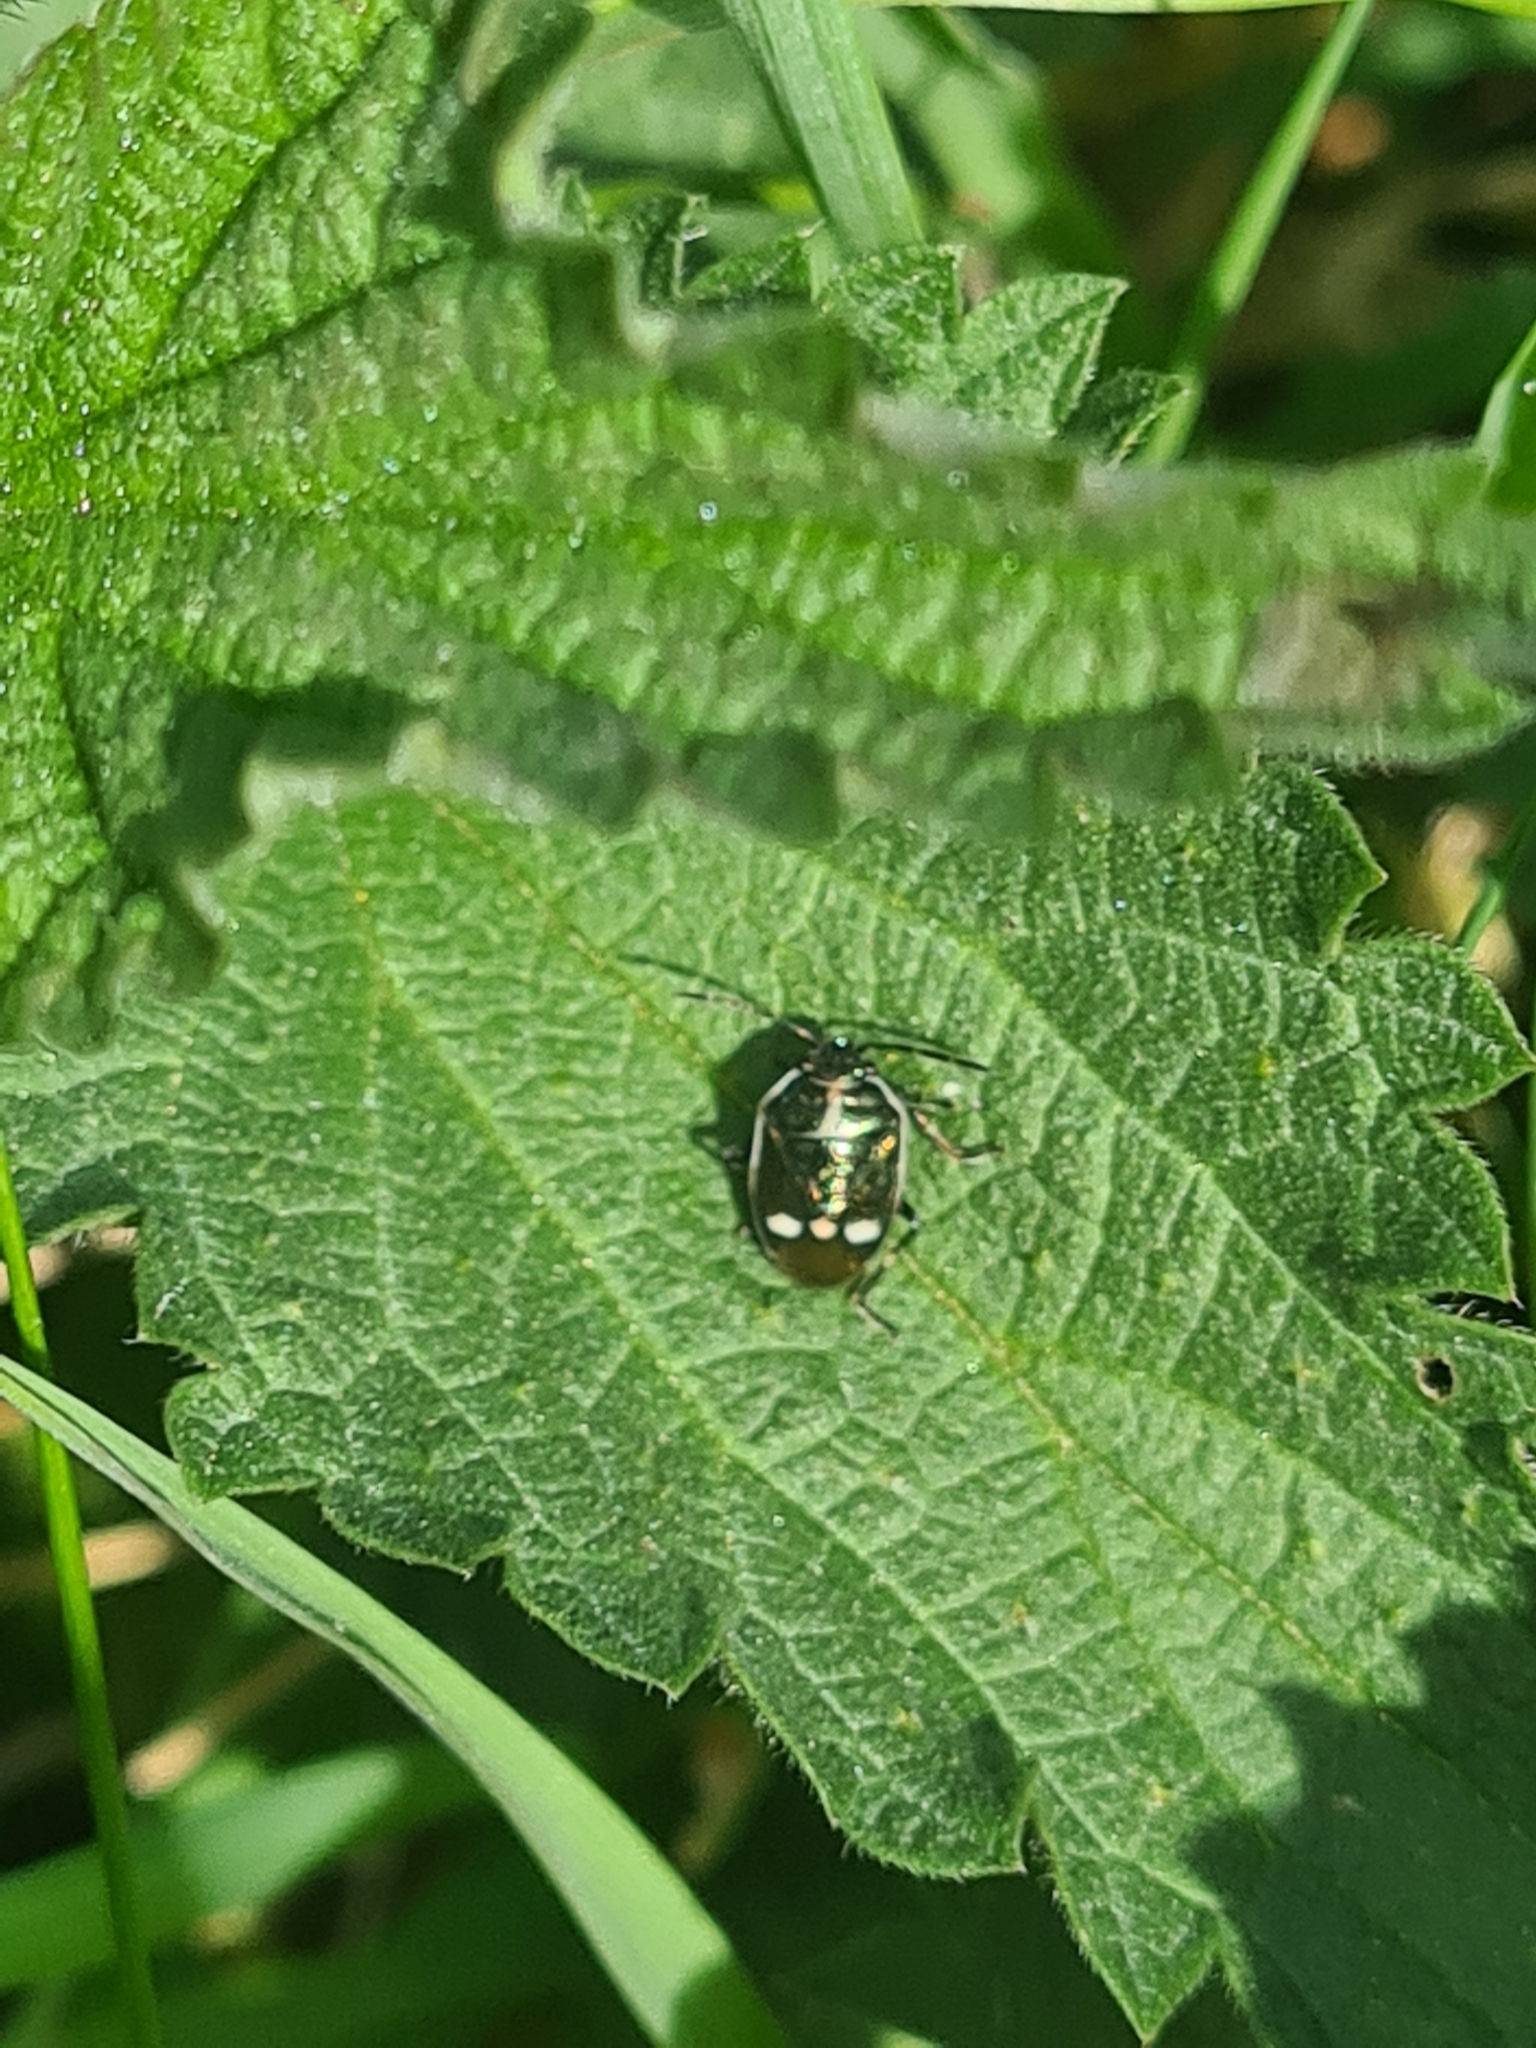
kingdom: Animalia
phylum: Arthropoda
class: Insecta
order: Hemiptera
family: Pentatomidae
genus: Eurydema
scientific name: Eurydema oleracea
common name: Cabbage bug
